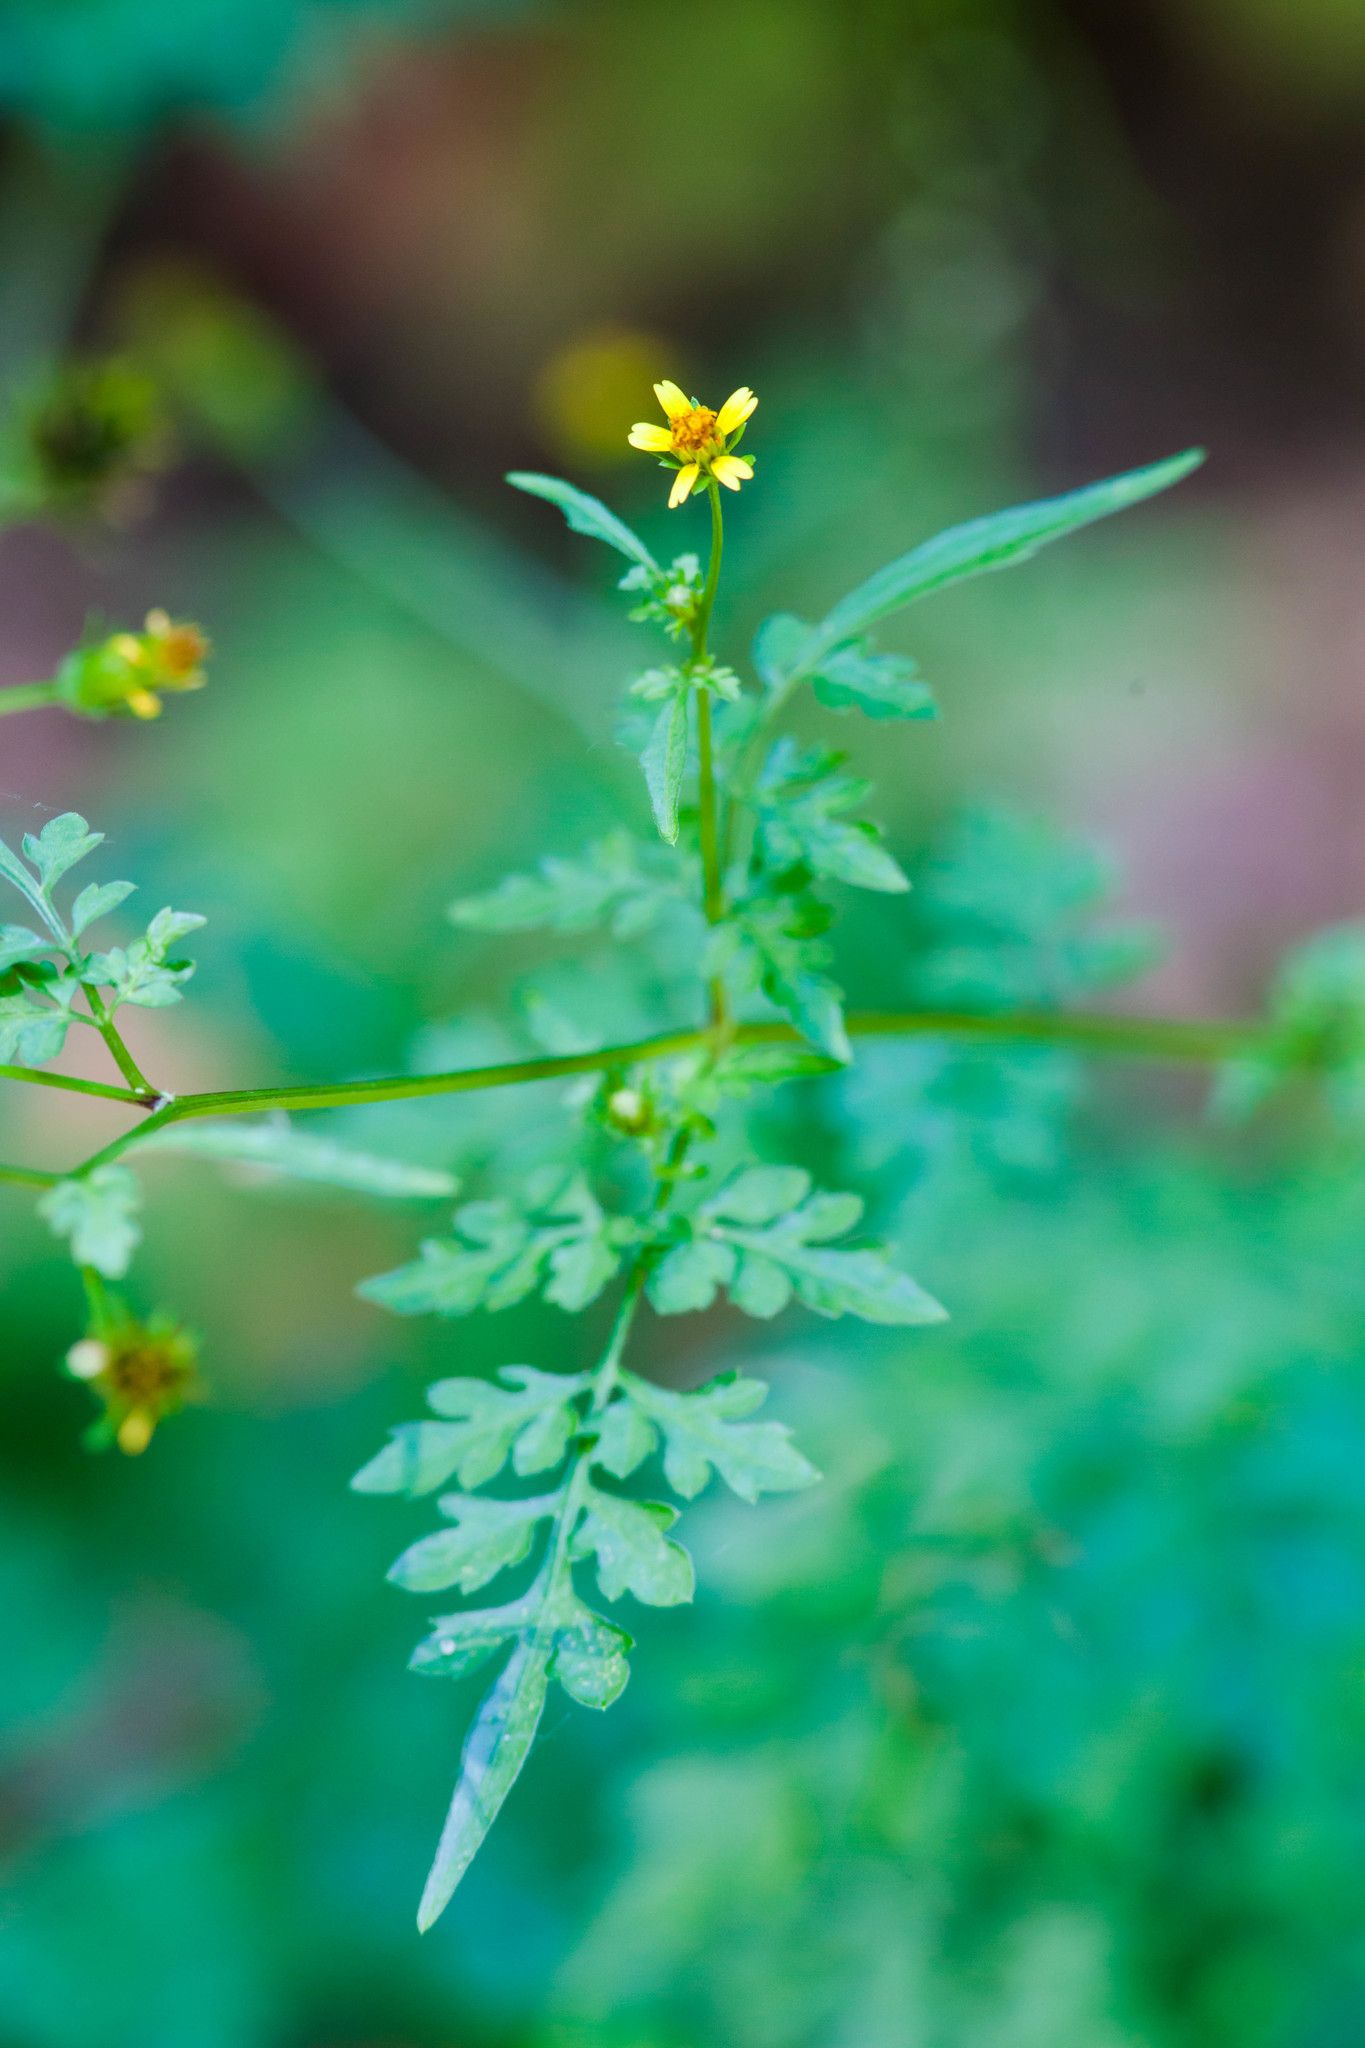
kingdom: Plantae
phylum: Tracheophyta
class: Magnoliopsida
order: Asterales
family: Asteraceae
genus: Bidens
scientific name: Bidens bipinnata
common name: Spanish-needles
